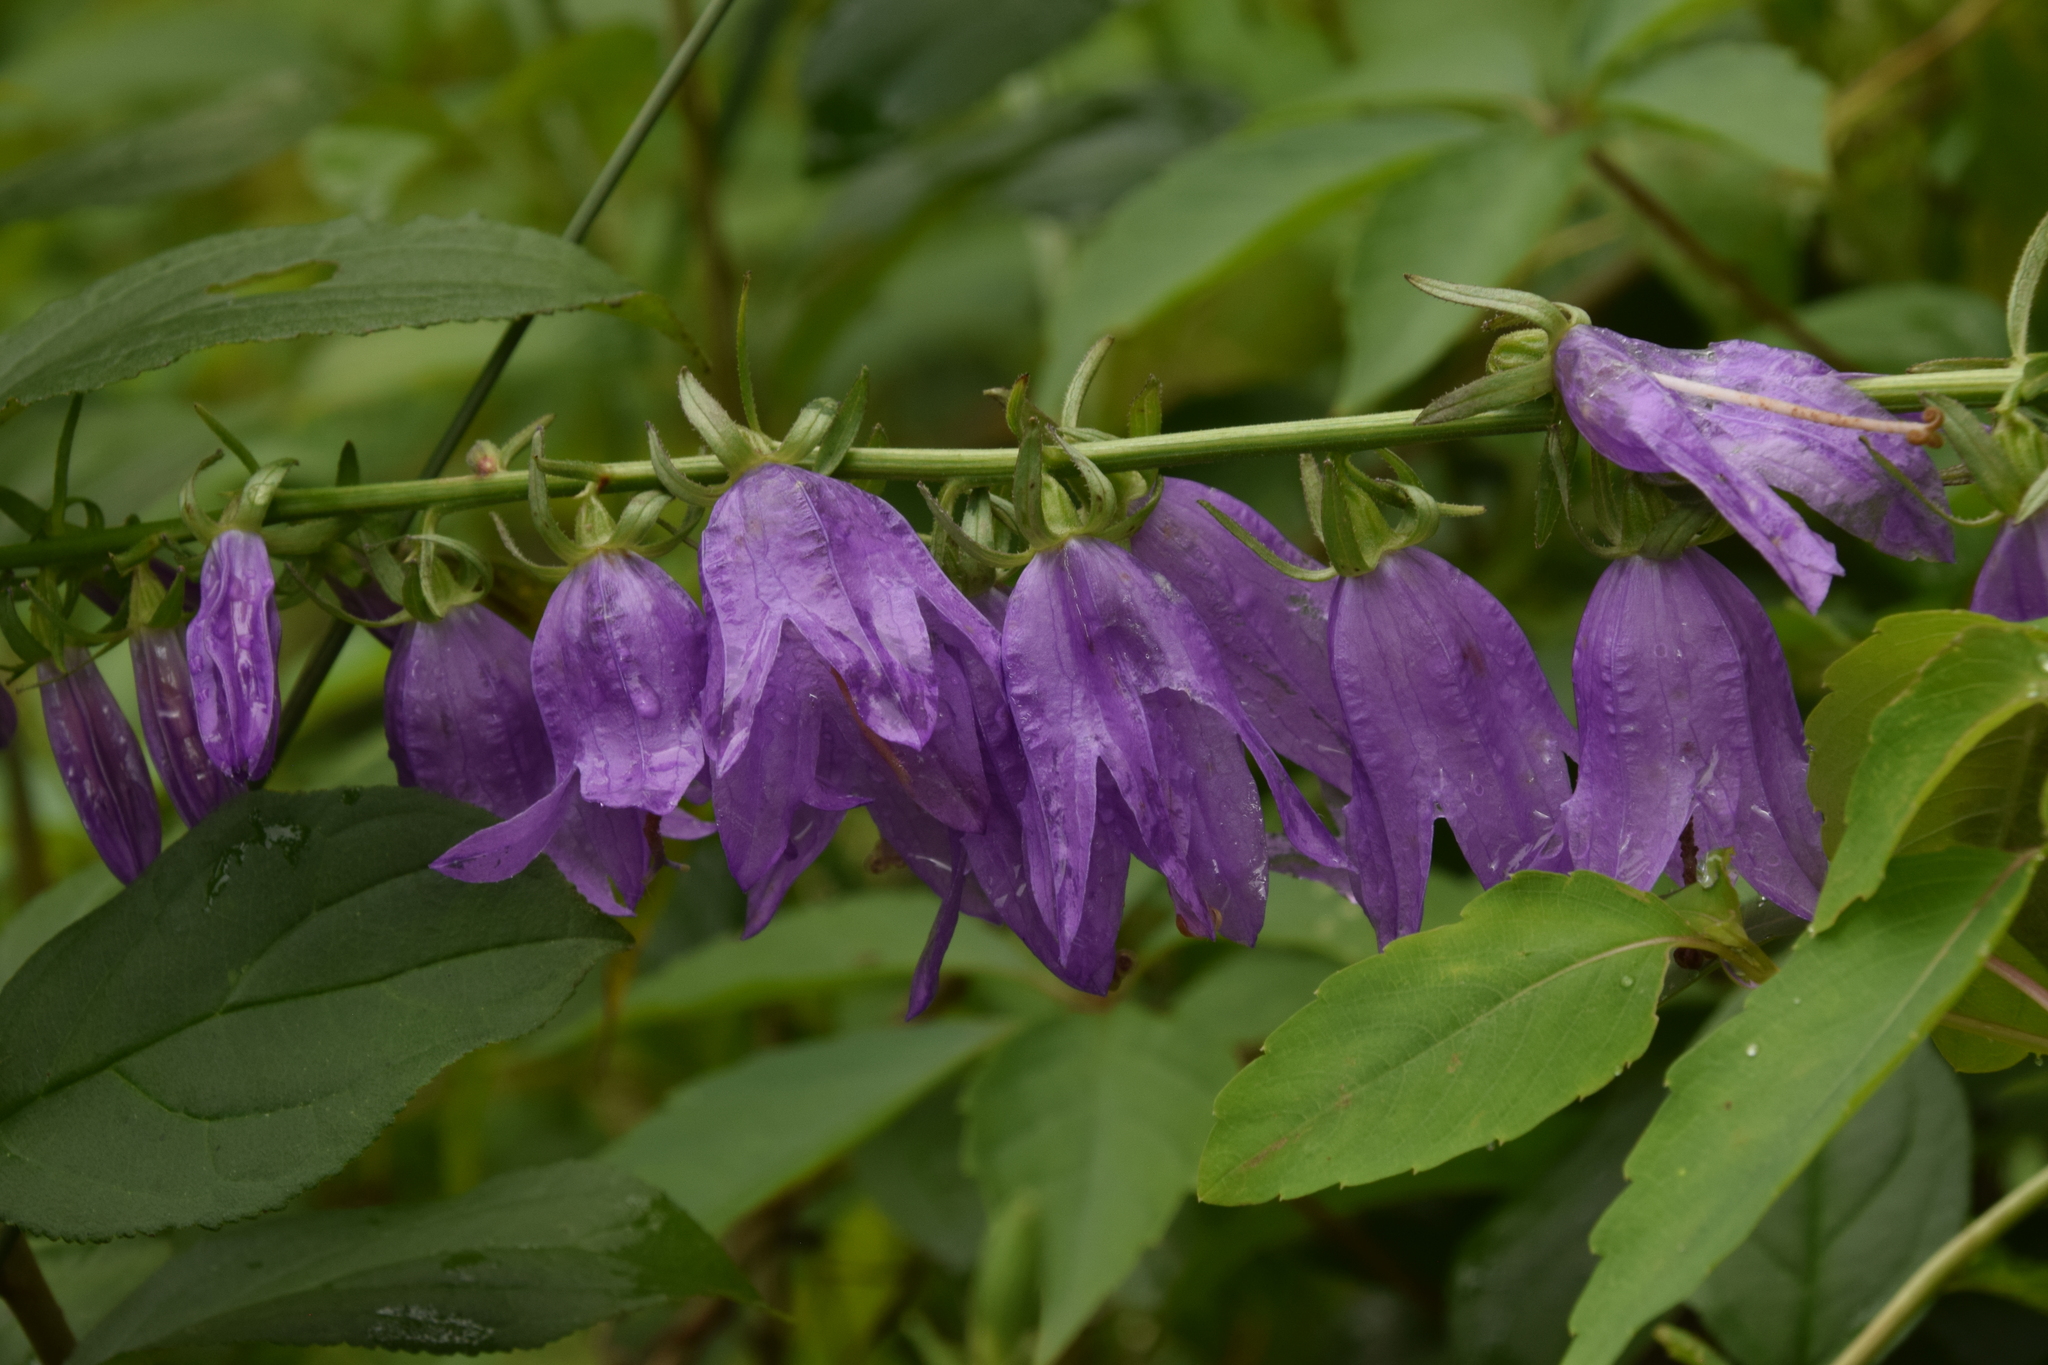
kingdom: Plantae
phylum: Tracheophyta
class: Magnoliopsida
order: Asterales
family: Campanulaceae
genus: Campanula
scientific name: Campanula rapunculoides
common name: Creeping bellflower
